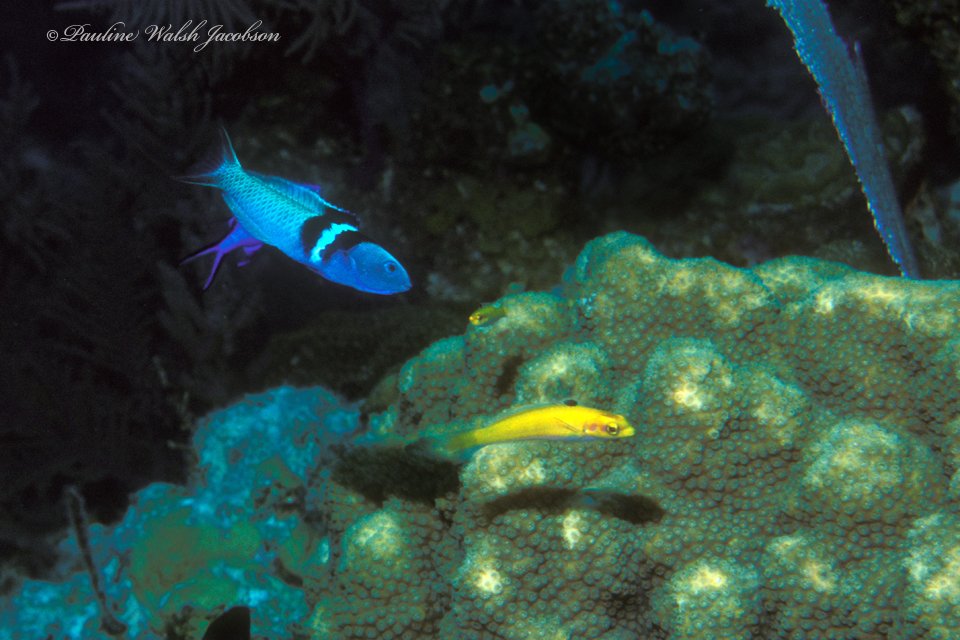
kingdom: Animalia
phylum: Chordata
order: Perciformes
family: Labridae
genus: Thalassoma
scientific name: Thalassoma bifasciatum
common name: Bluehead wrasse
